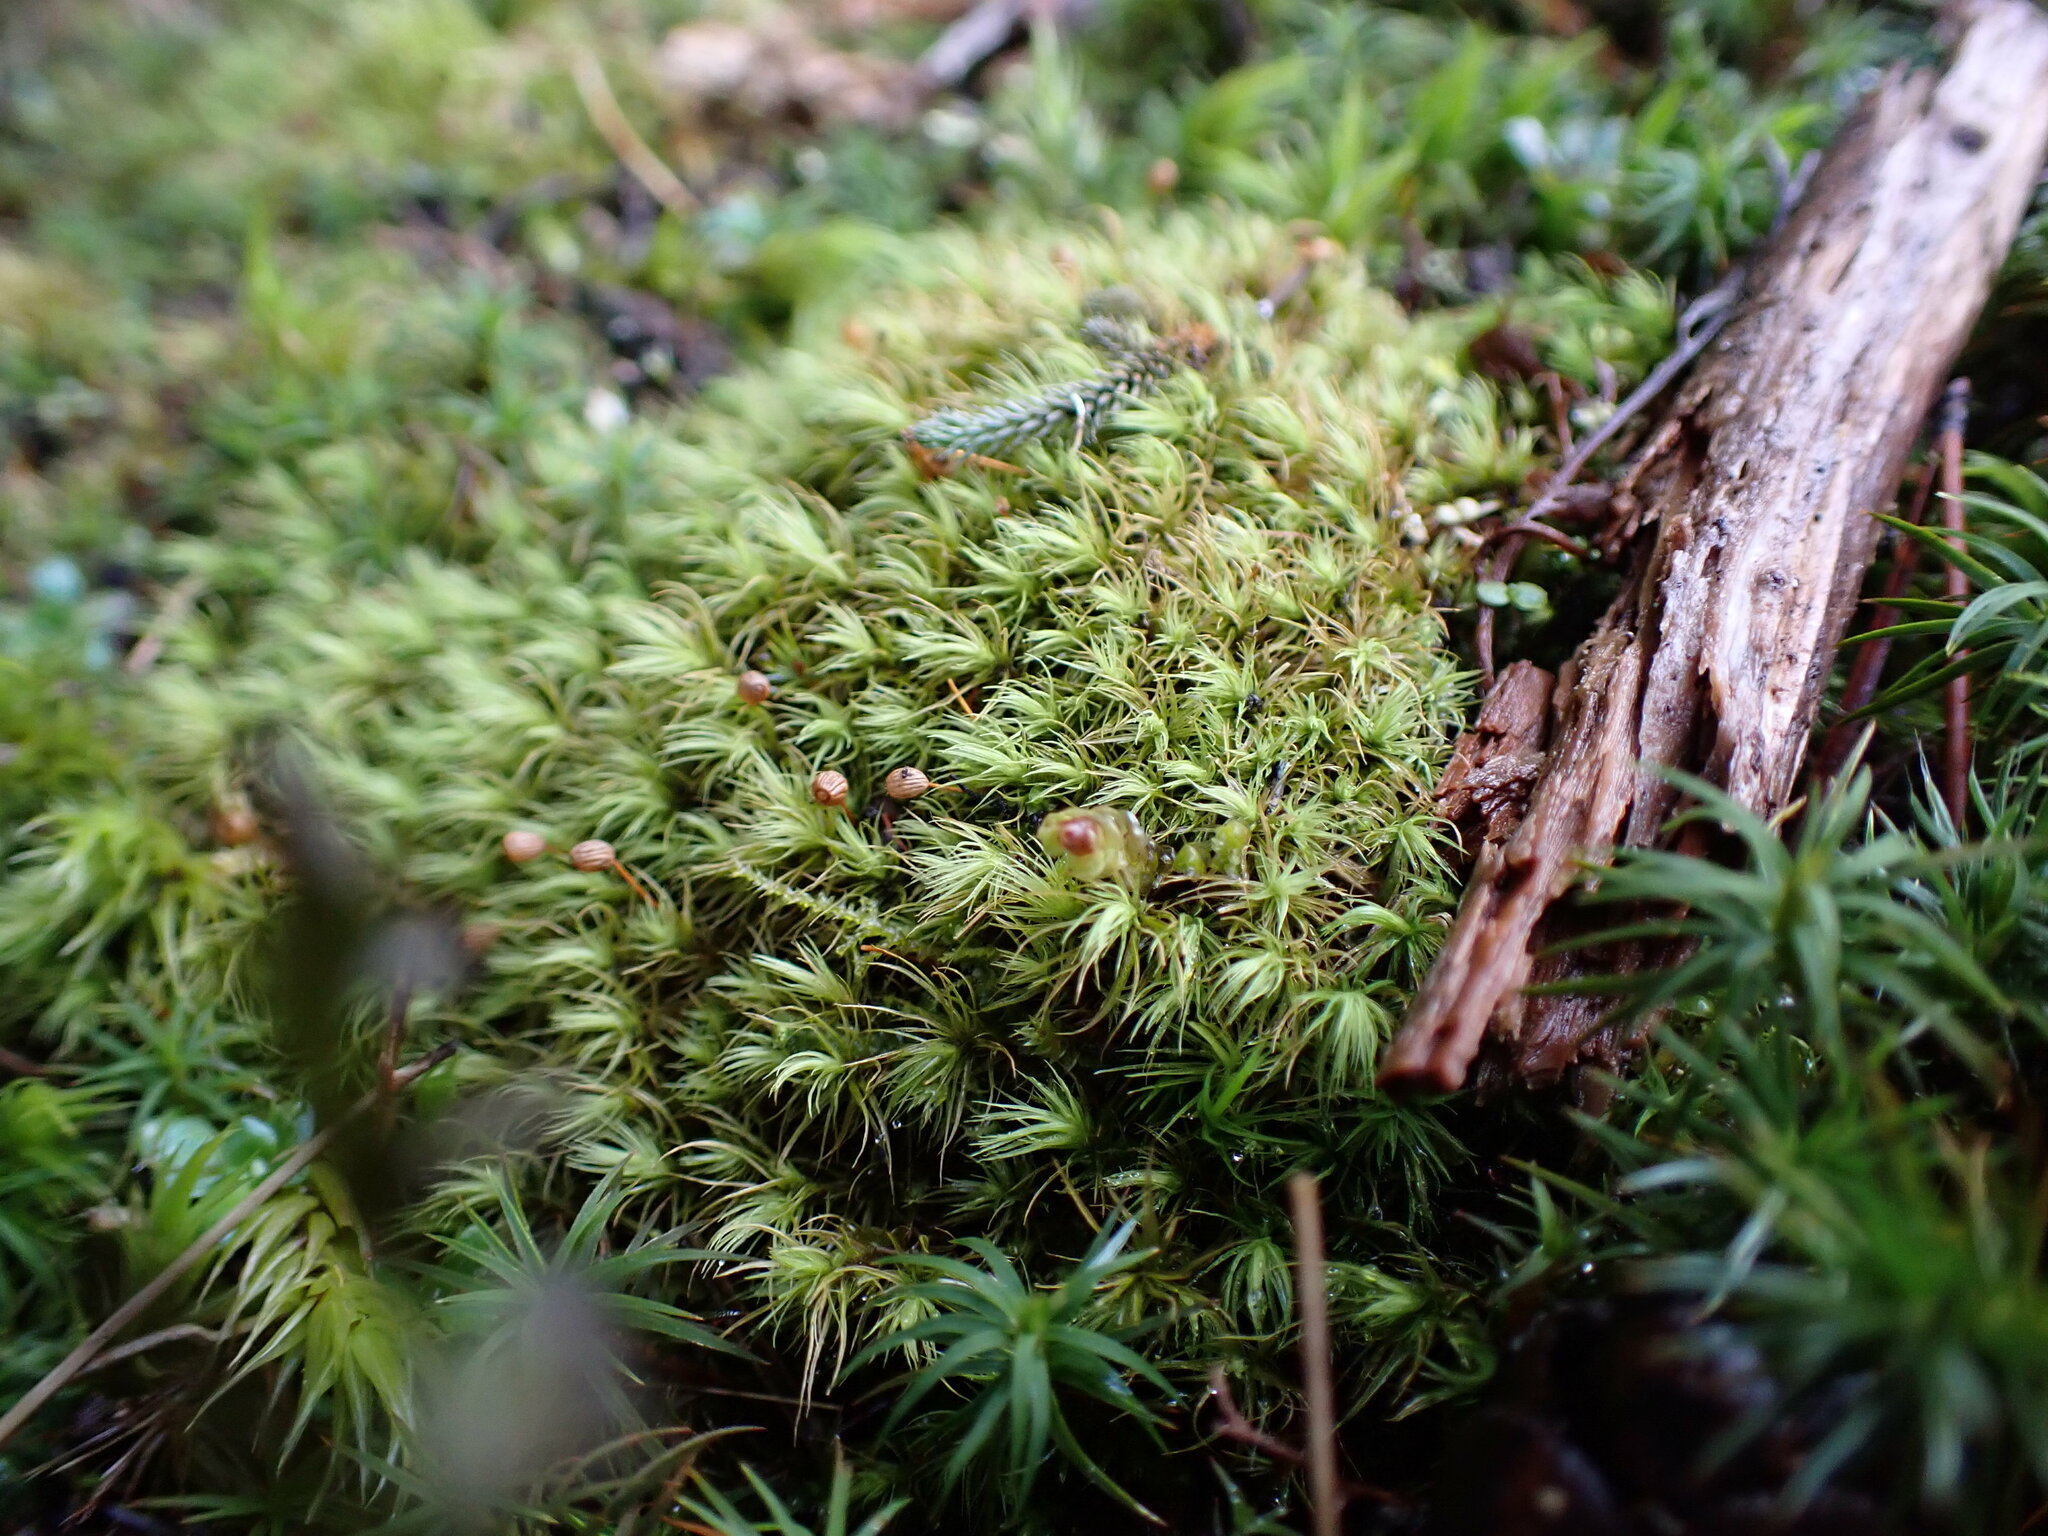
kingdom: Plantae
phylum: Bryophyta
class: Bryopsida
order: Bartramiales
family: Bartramiaceae
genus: Bartramia
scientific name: Bartramia ithyphylla
